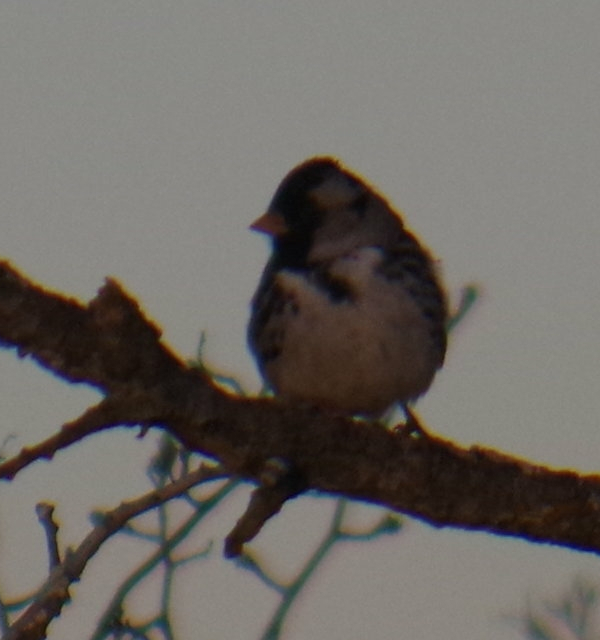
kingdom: Animalia
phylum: Chordata
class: Aves
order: Passeriformes
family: Passerellidae
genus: Zonotrichia
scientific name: Zonotrichia querula
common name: Harris's sparrow
